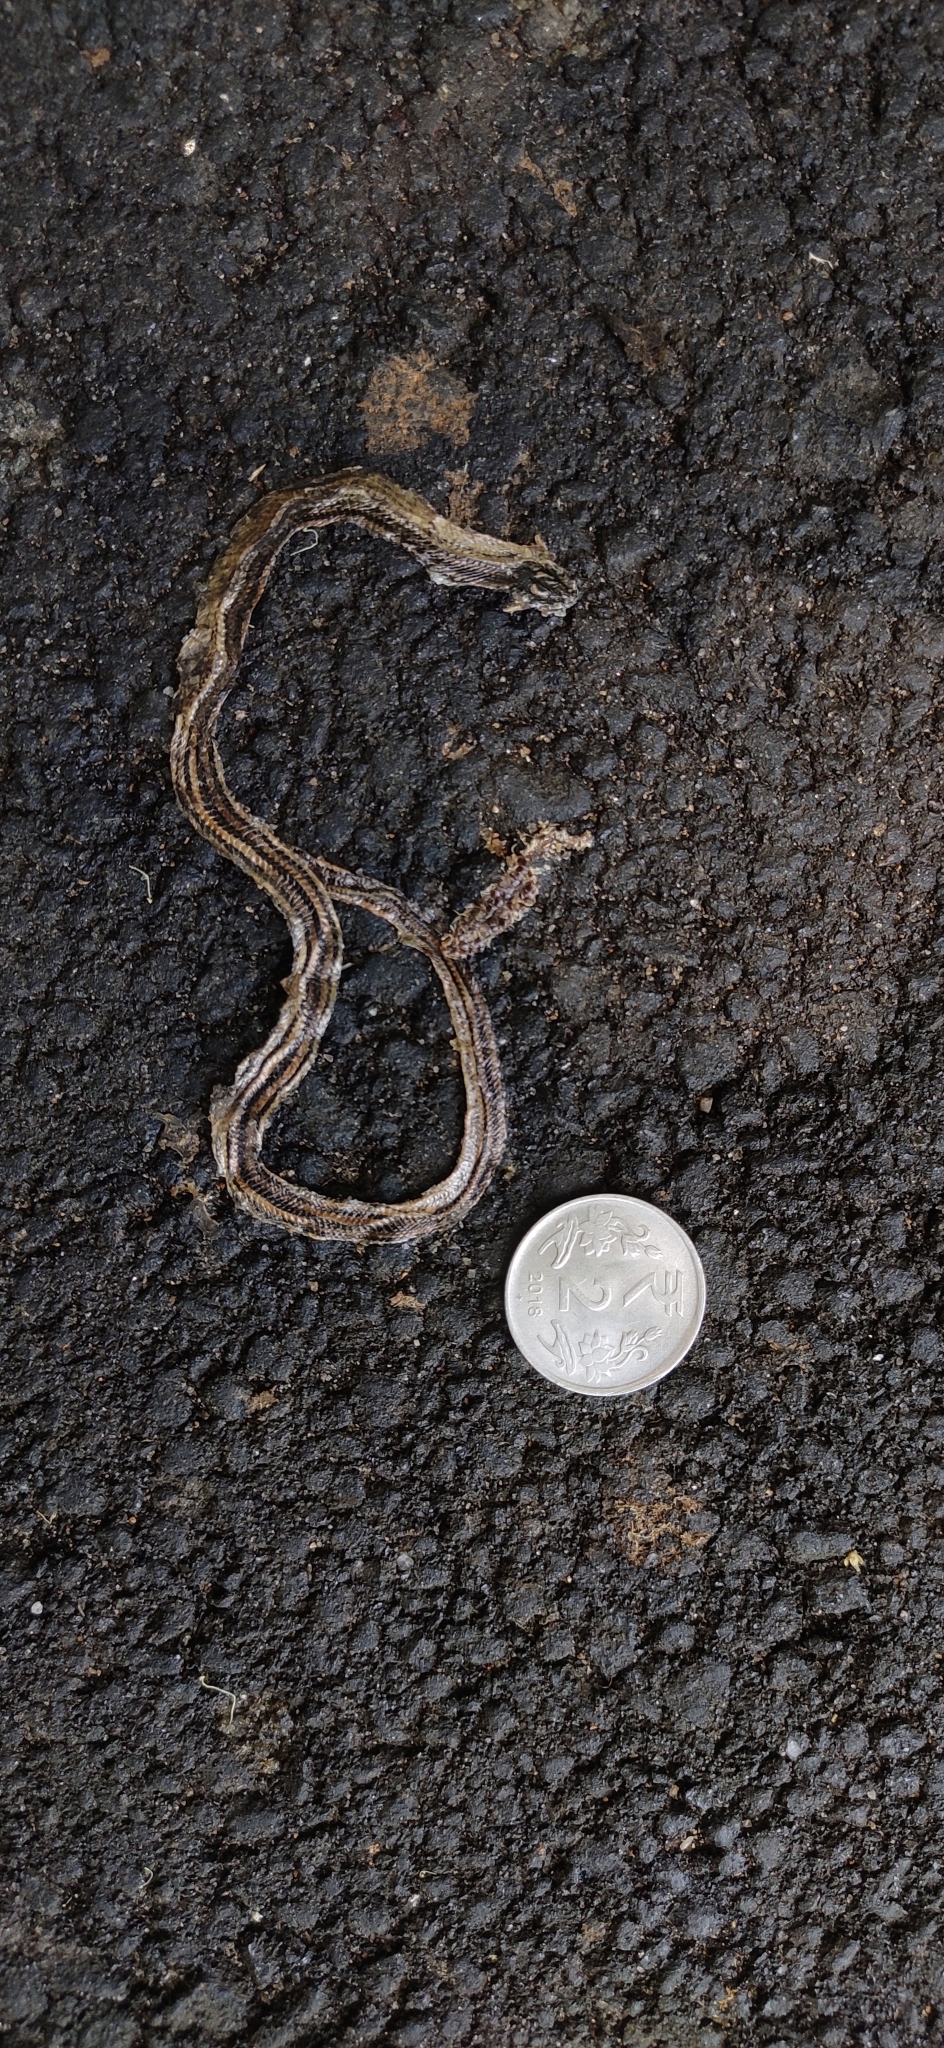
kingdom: Animalia
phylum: Chordata
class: Squamata
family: Elapidae
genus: Calliophis
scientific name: Calliophis nigrescens
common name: Black coral snake
